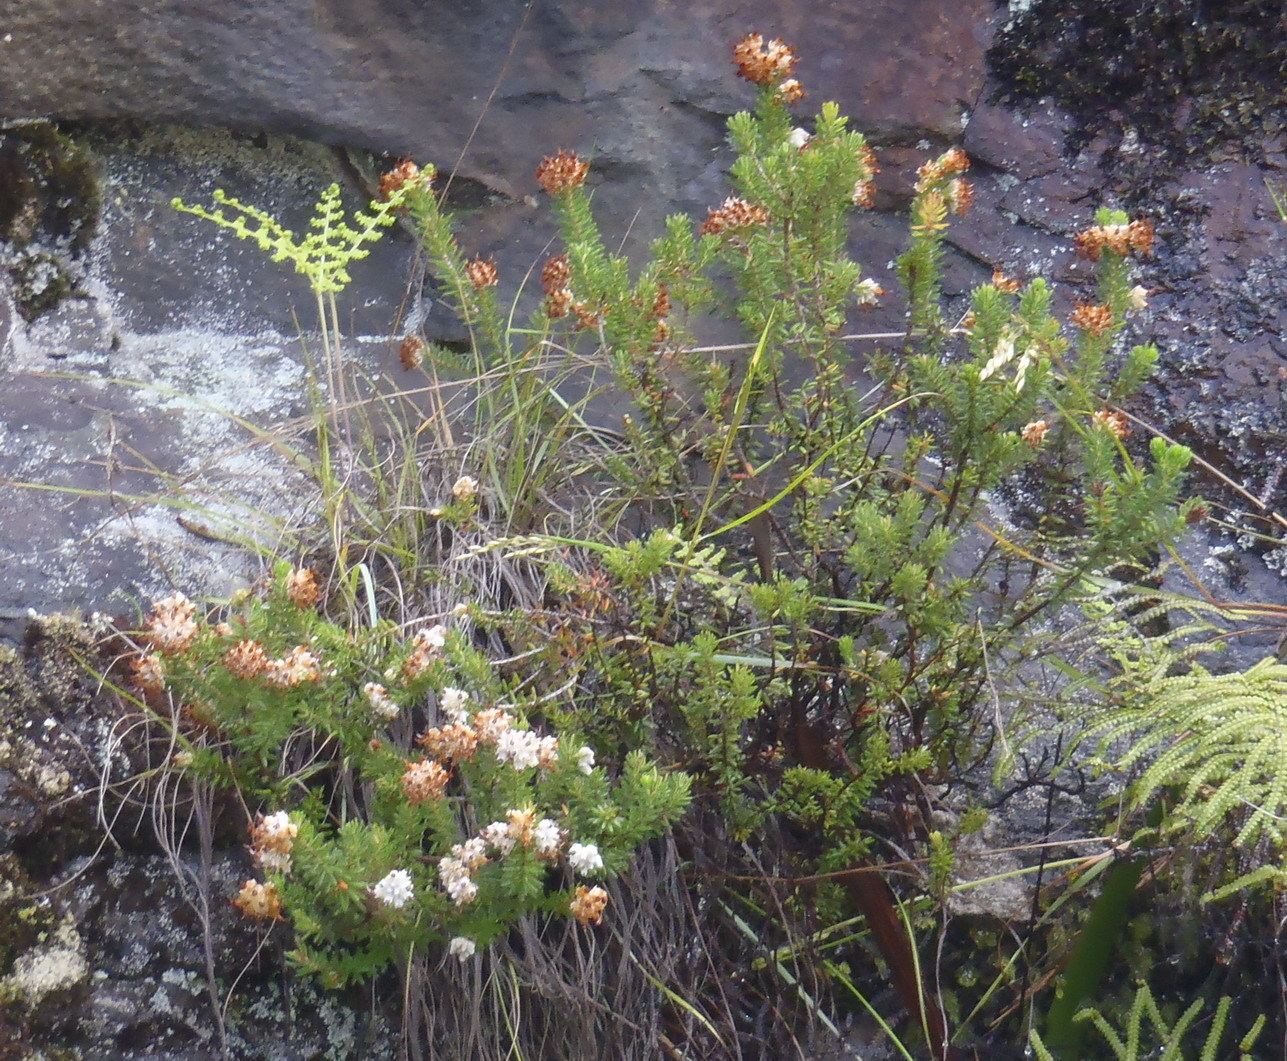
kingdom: Plantae
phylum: Tracheophyta
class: Magnoliopsida
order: Ericales
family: Ericaceae
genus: Erica
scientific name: Erica stylaris
